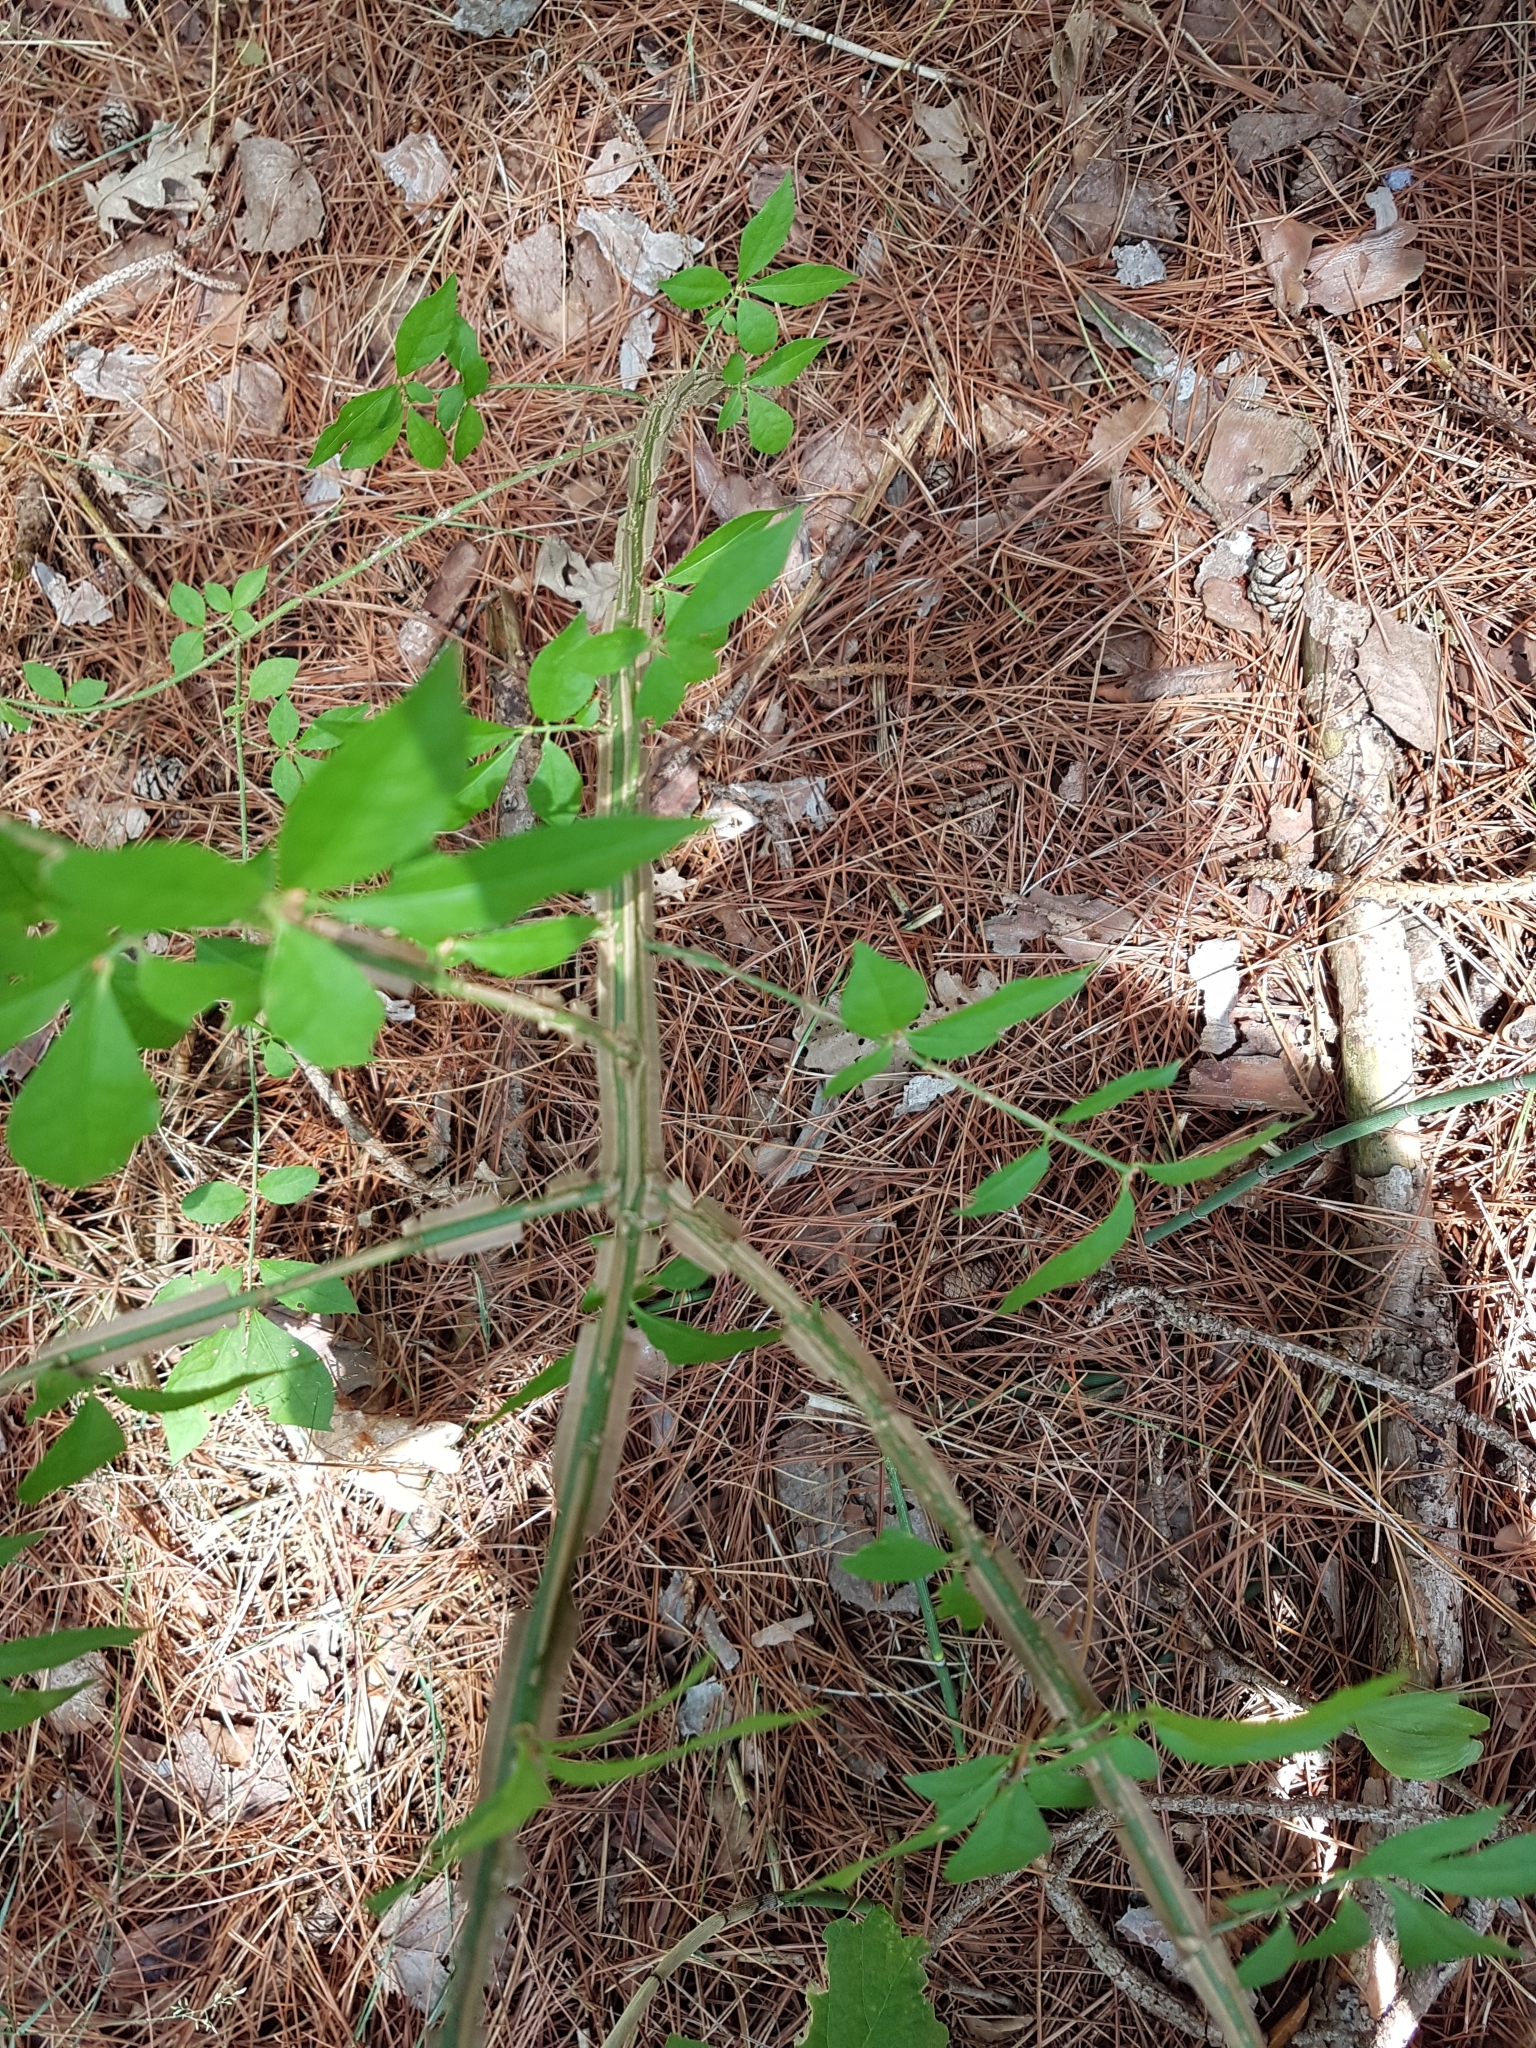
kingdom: Plantae
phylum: Tracheophyta
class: Magnoliopsida
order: Celastrales
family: Celastraceae
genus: Euonymus
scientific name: Euonymus alatus
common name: Winged euonymus
